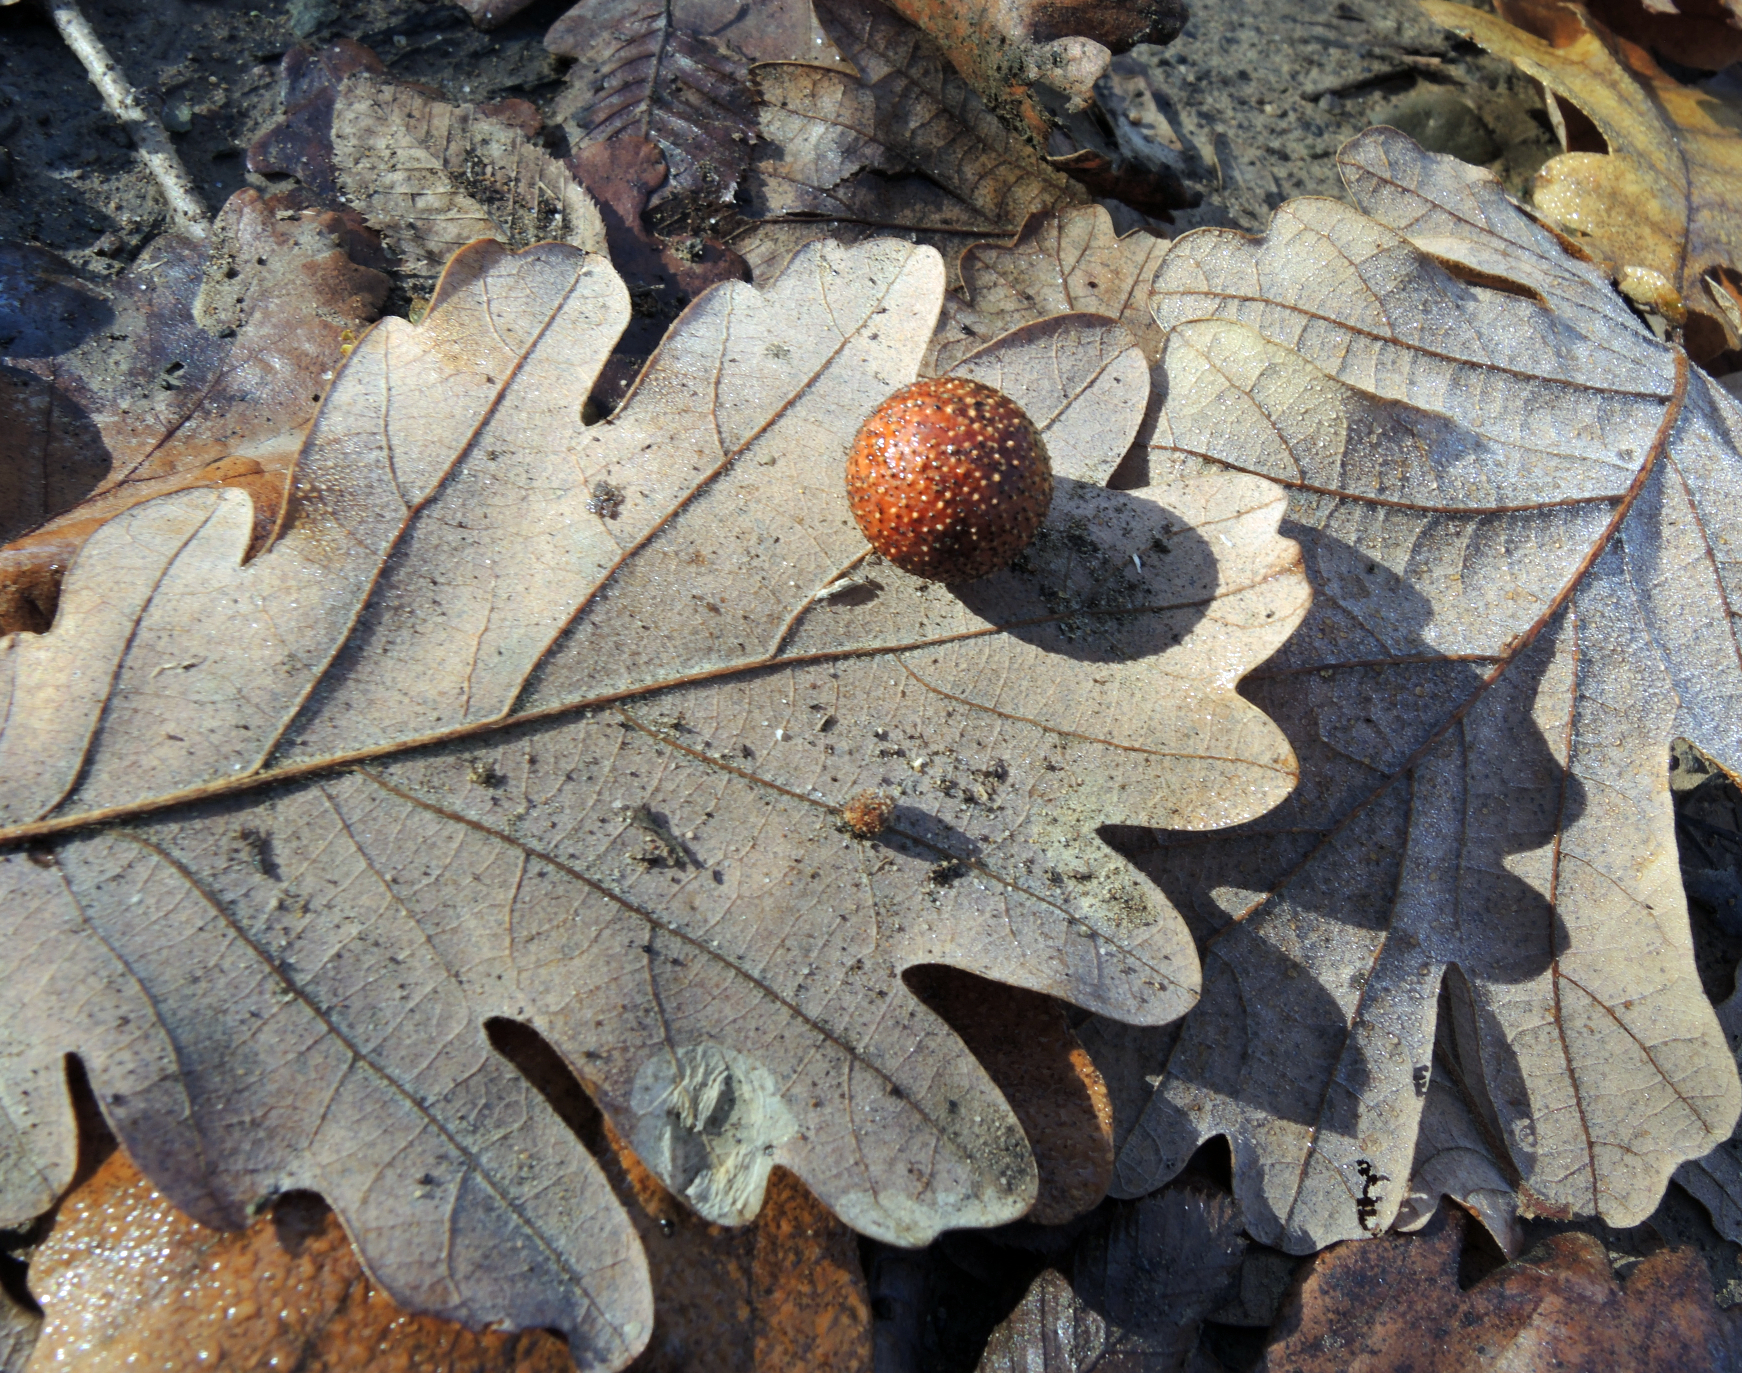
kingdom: Animalia
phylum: Arthropoda
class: Insecta
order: Hymenoptera
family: Cynipidae
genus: Cynips
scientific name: Cynips quercusfolii
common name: Cherry gall
